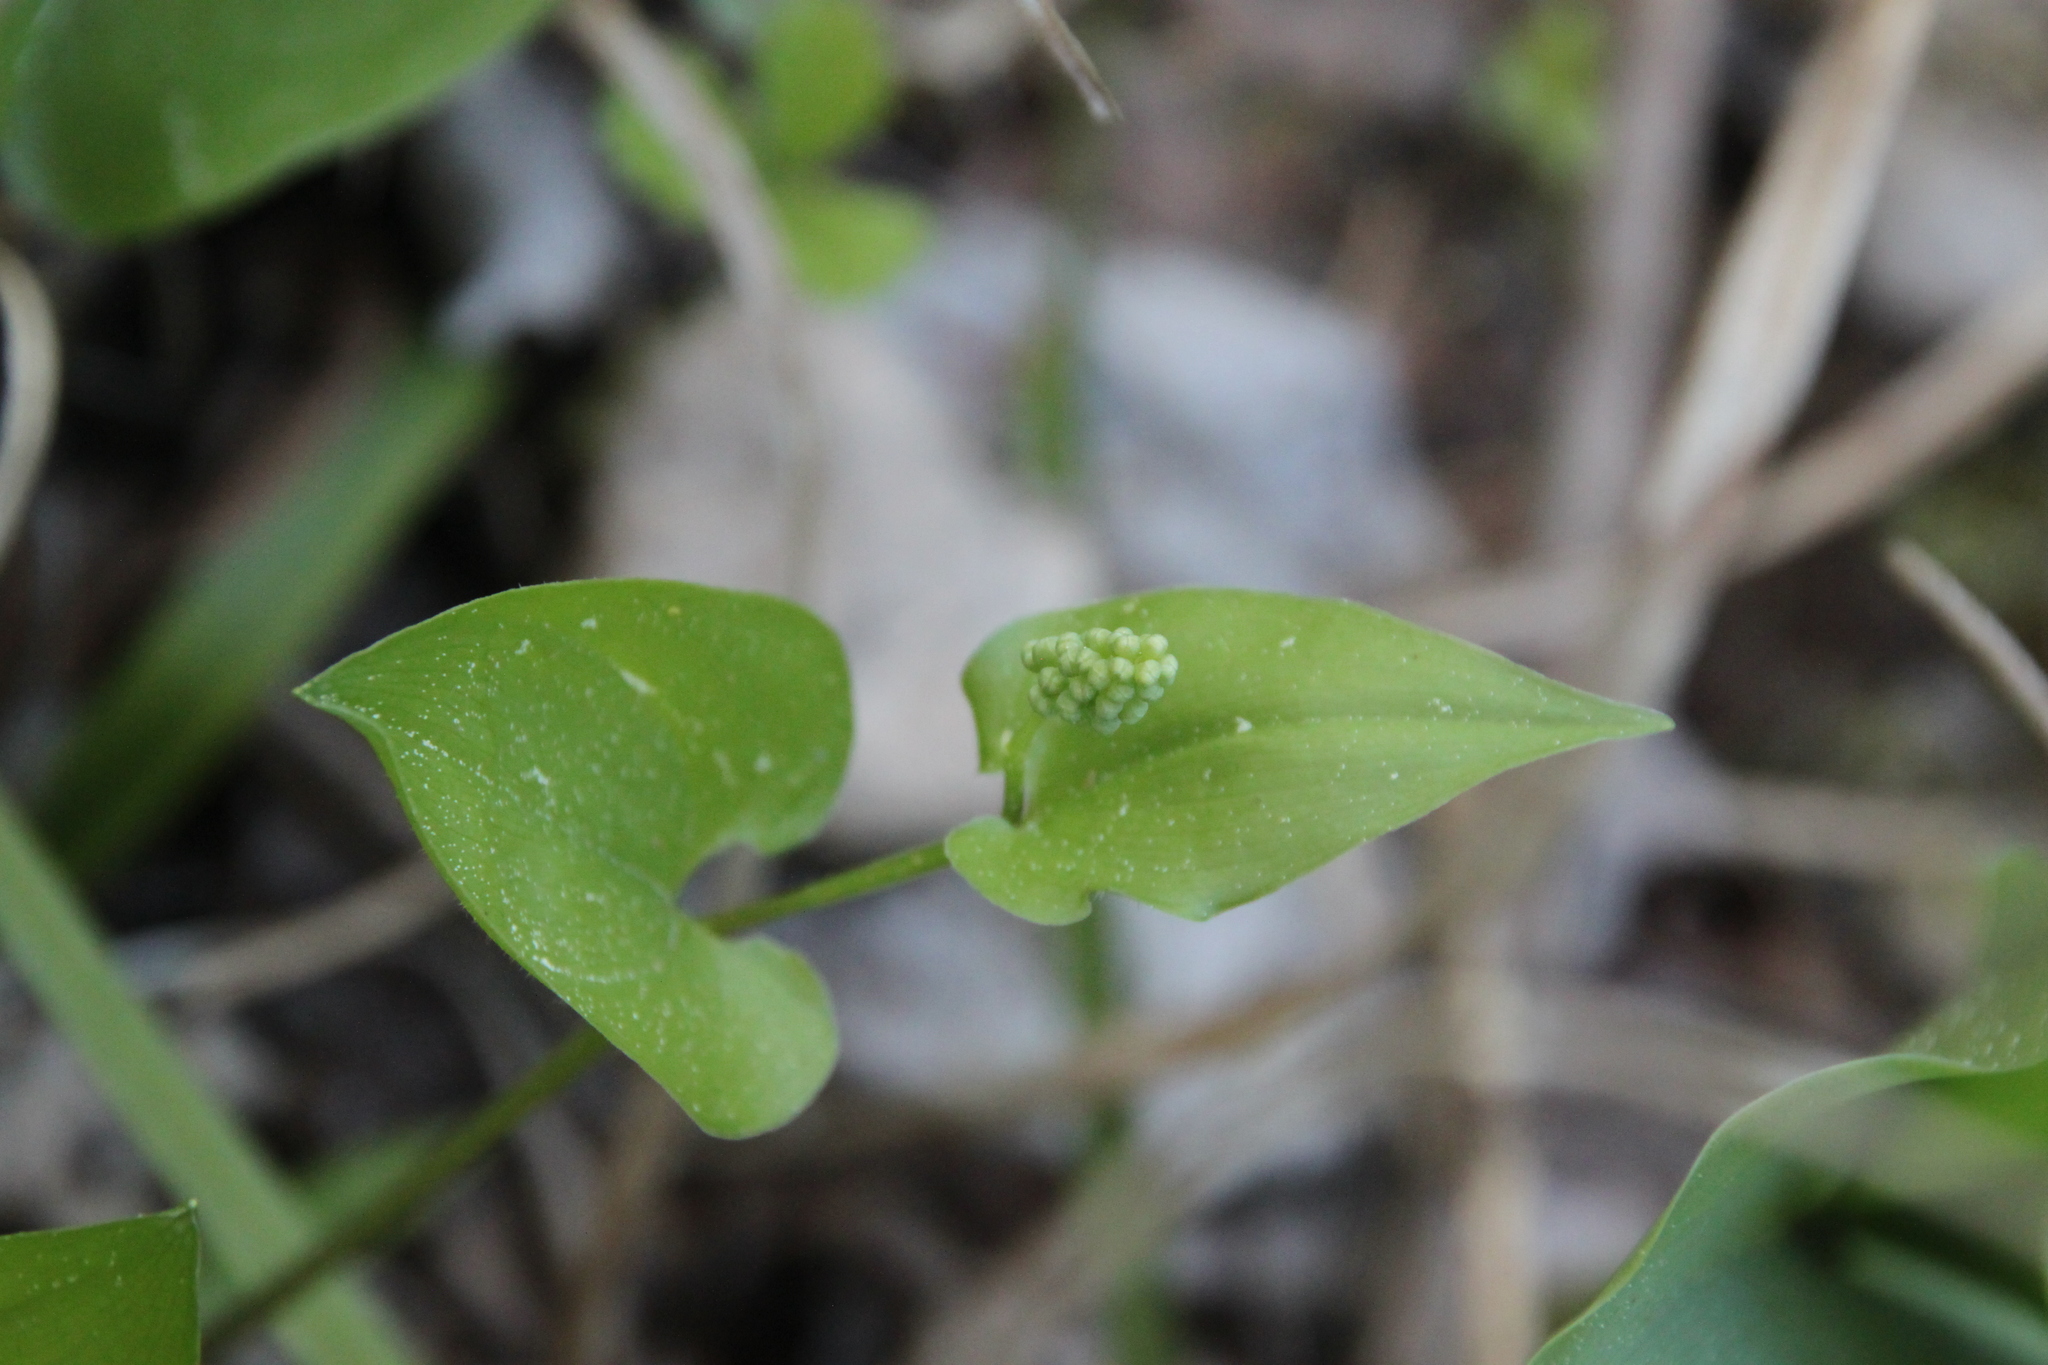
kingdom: Plantae
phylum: Tracheophyta
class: Liliopsida
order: Asparagales
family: Asparagaceae
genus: Maianthemum
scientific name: Maianthemum bifolium
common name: May lily
